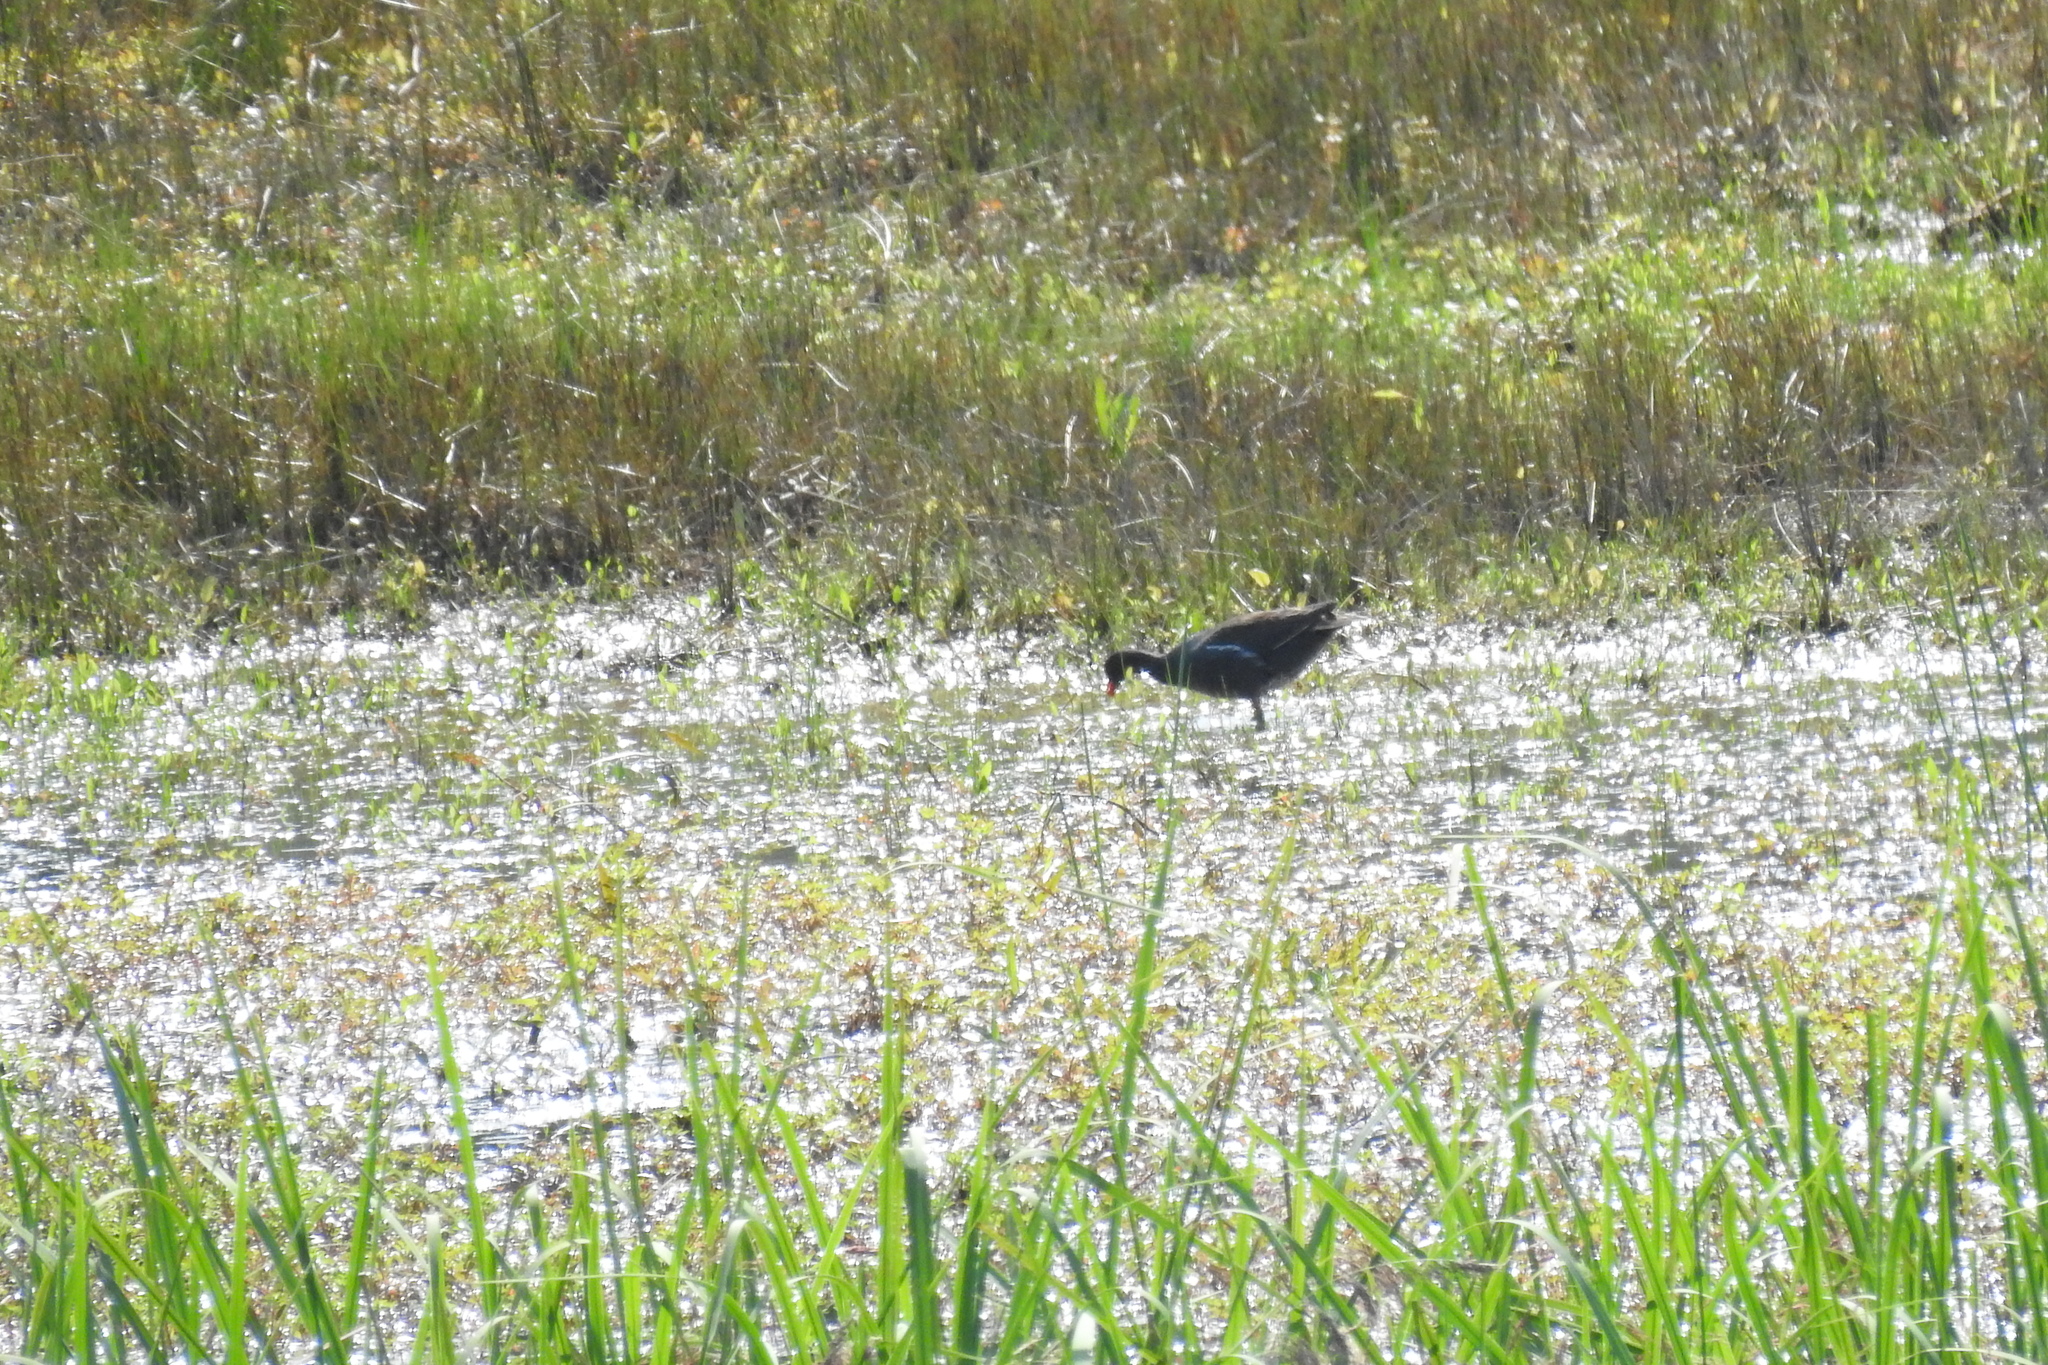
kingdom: Animalia
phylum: Chordata
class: Aves
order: Gruiformes
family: Rallidae
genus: Gallinula
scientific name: Gallinula chloropus
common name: Common moorhen
